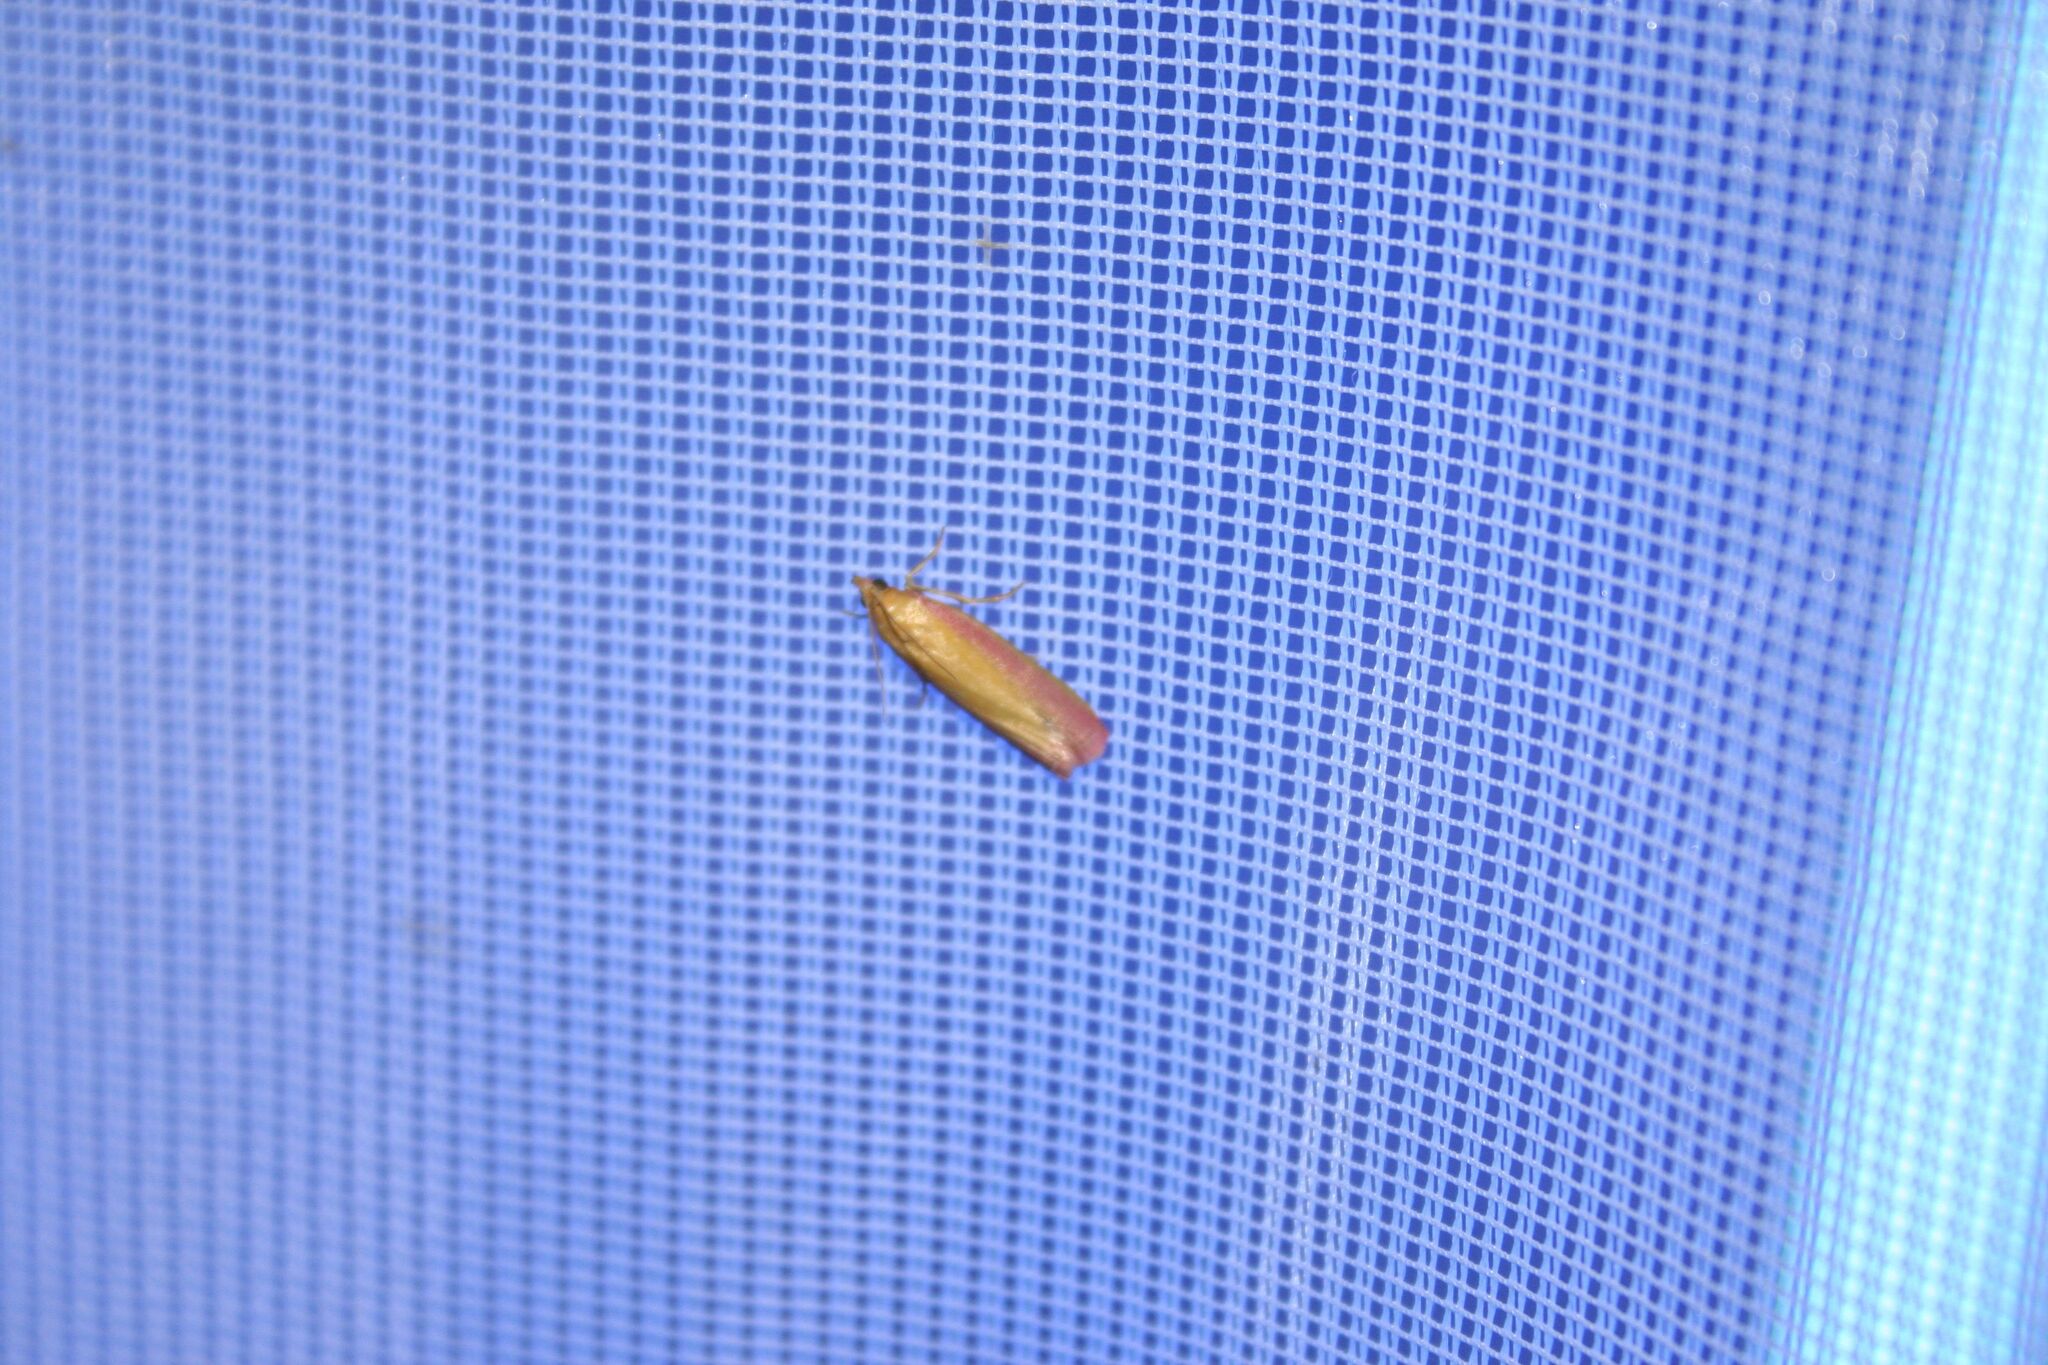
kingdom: Animalia
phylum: Arthropoda
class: Insecta
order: Lepidoptera
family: Pyralidae
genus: Oncocera
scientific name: Oncocera semirubella
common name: Rosy-striped knot-horn
